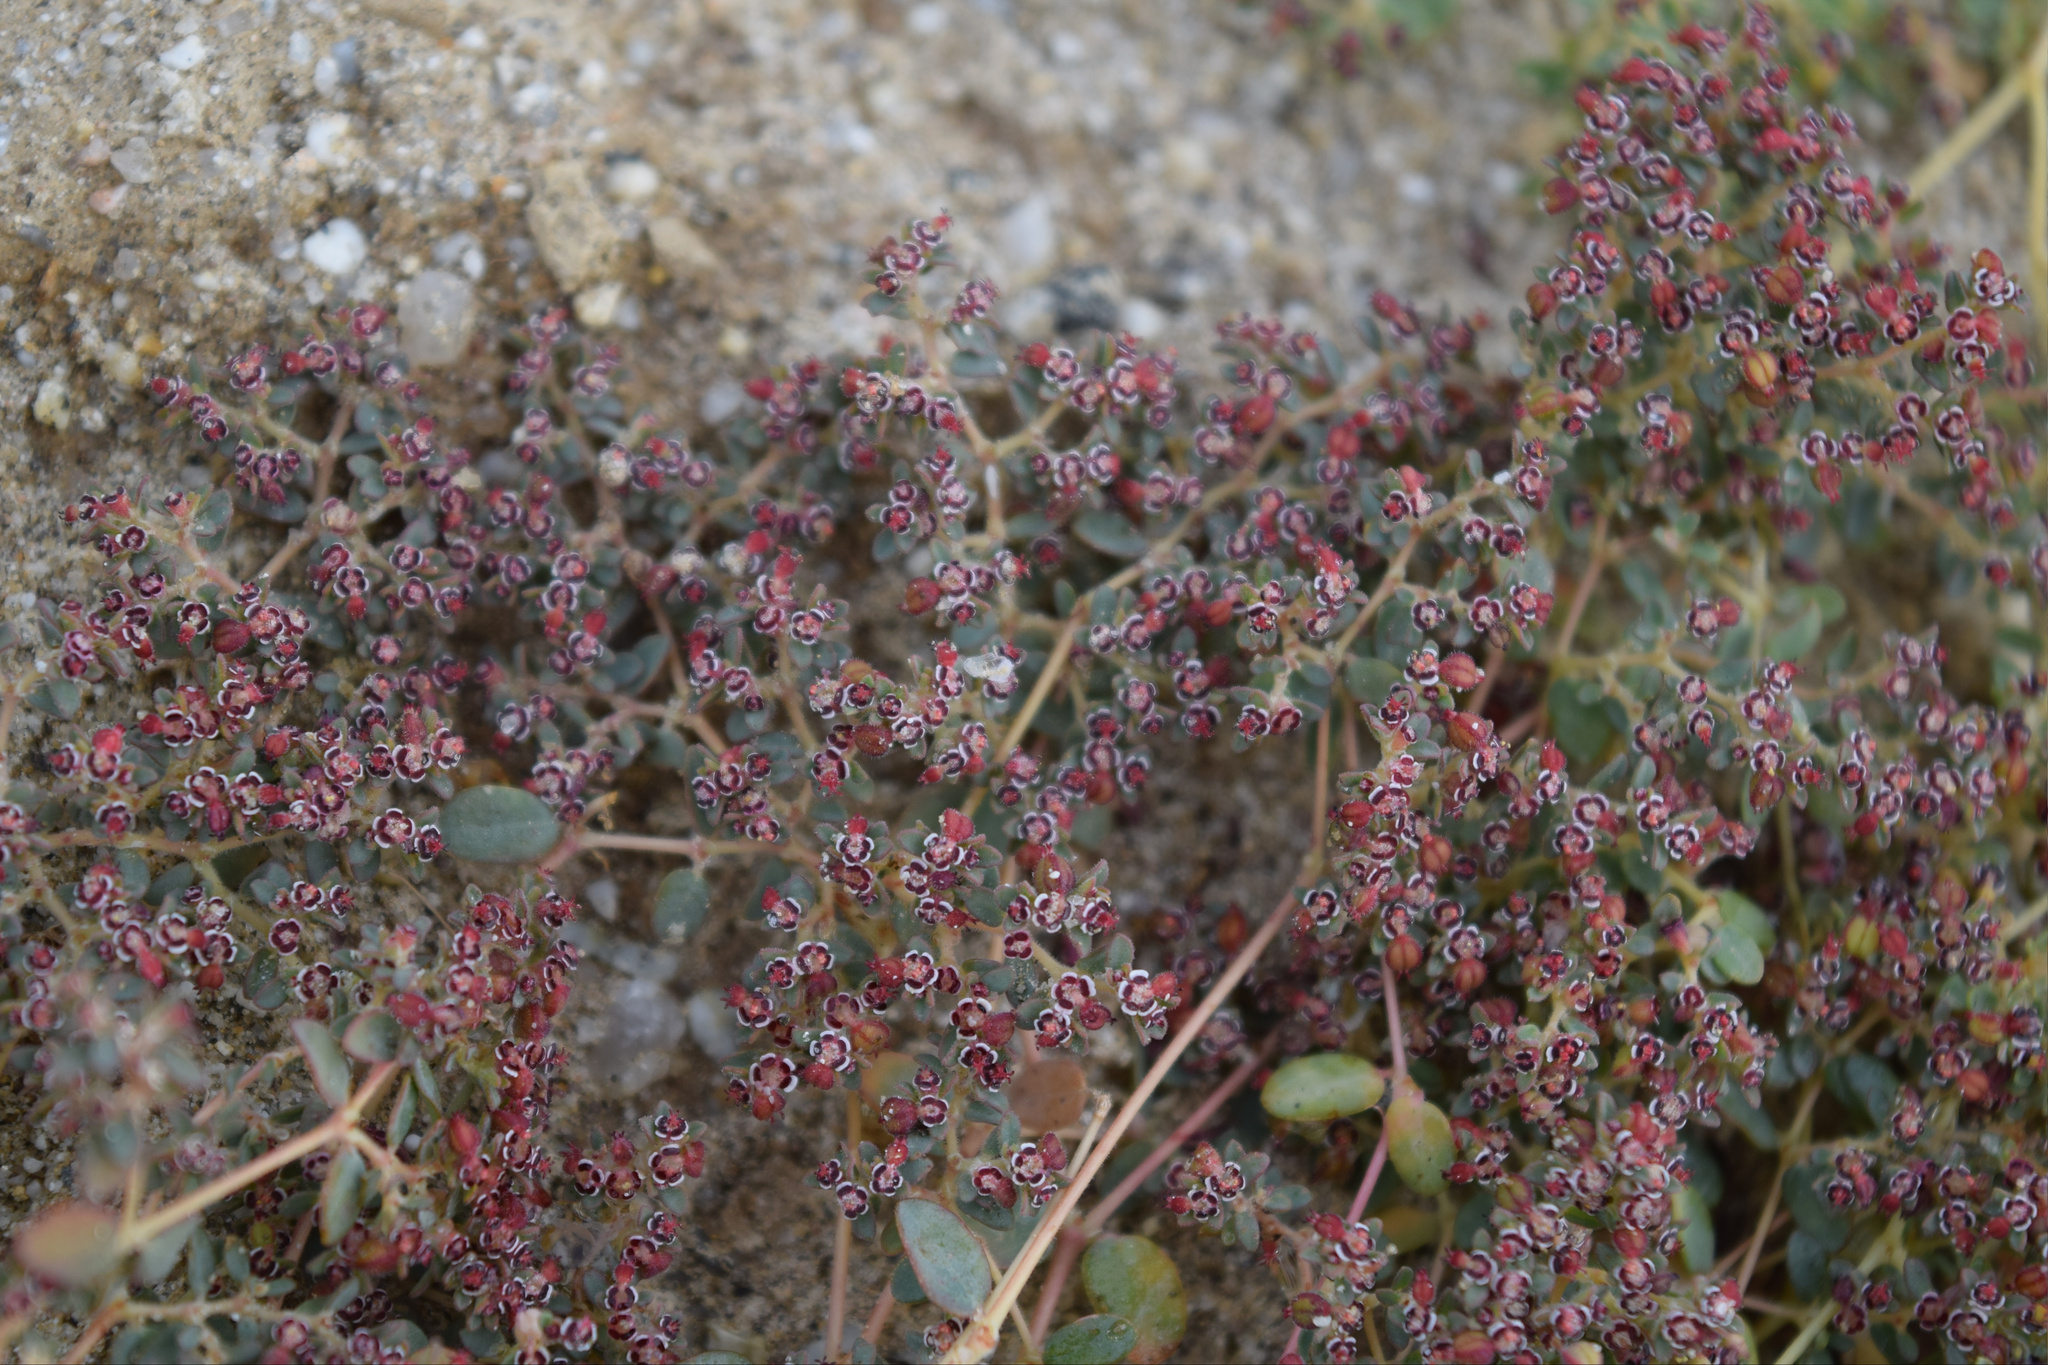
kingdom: Plantae
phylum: Tracheophyta
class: Magnoliopsida
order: Malpighiales
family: Euphorbiaceae
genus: Euphorbia
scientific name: Euphorbia polycarpa
